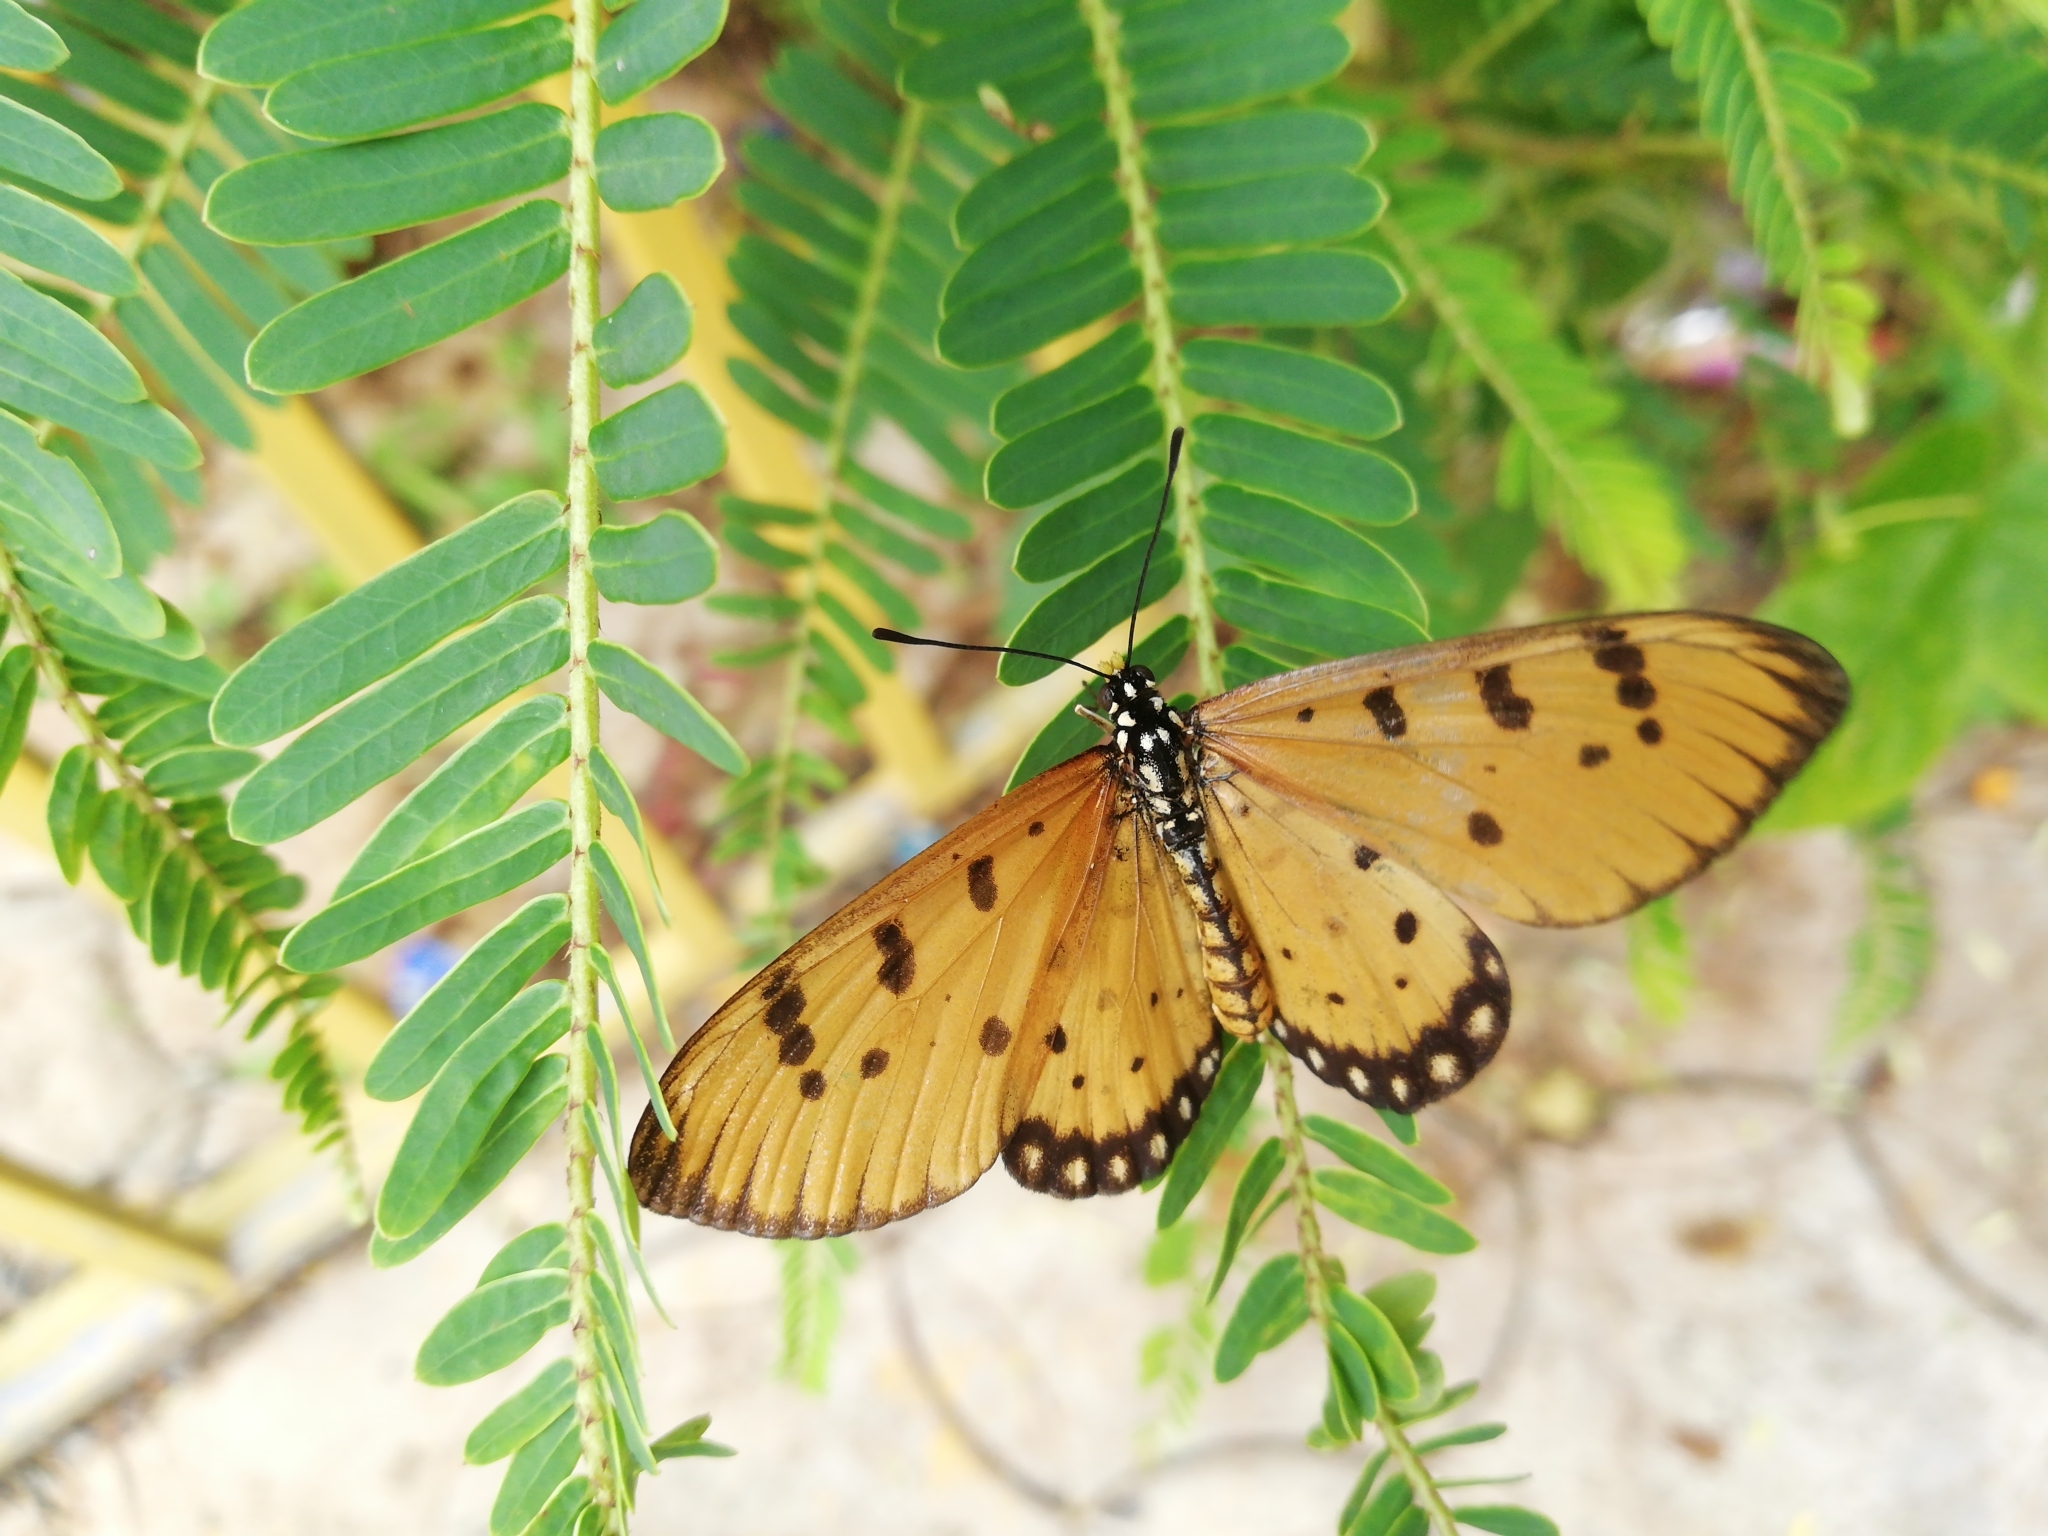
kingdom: Animalia
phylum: Arthropoda
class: Insecta
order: Lepidoptera
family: Nymphalidae
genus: Acraea
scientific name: Acraea terpsicore
